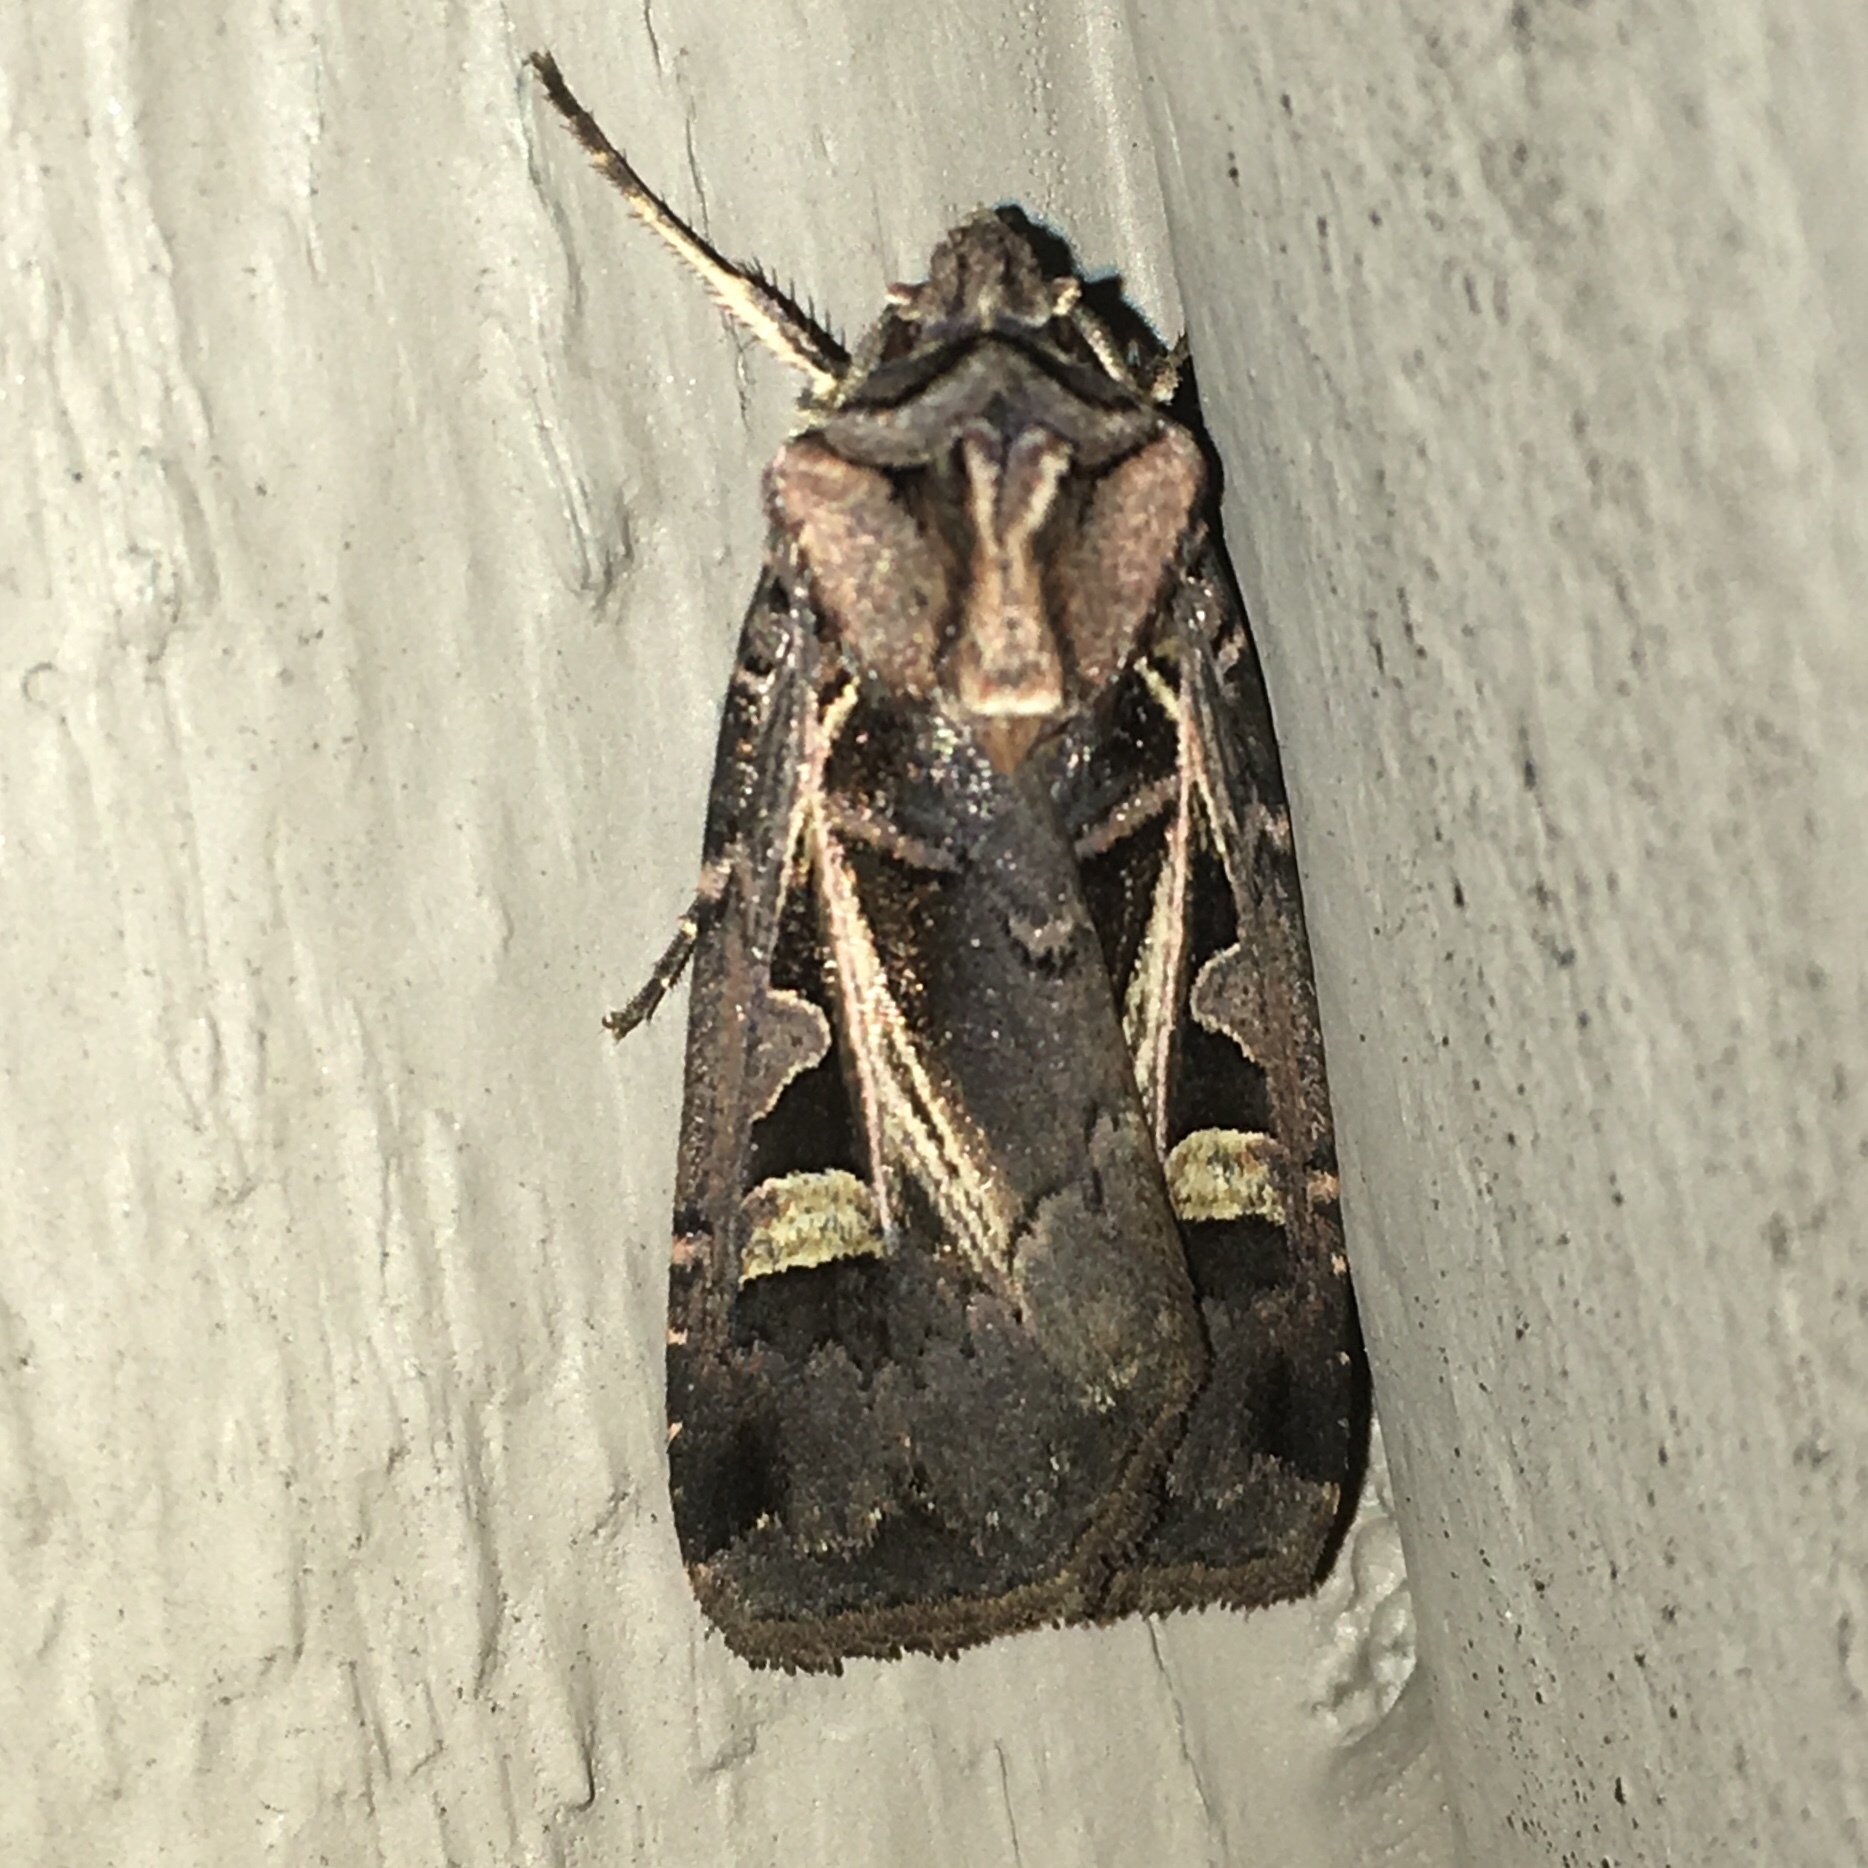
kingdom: Animalia
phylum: Arthropoda
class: Insecta
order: Lepidoptera
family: Noctuidae
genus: Feltia
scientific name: Feltia herilis
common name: Master's dart
